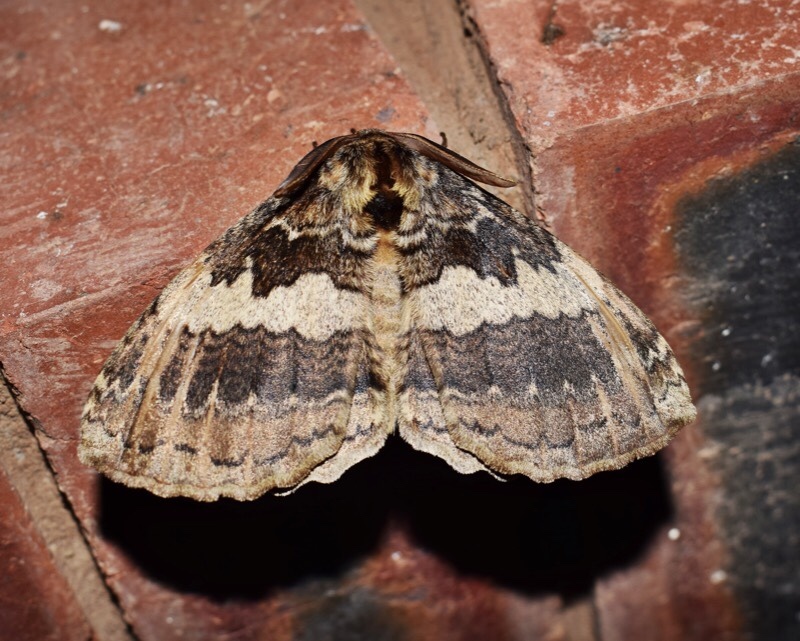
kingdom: Animalia
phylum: Arthropoda
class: Insecta
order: Lepidoptera
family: Eupterotidae
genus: Striphnopteryx
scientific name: Striphnopteryx edulis
